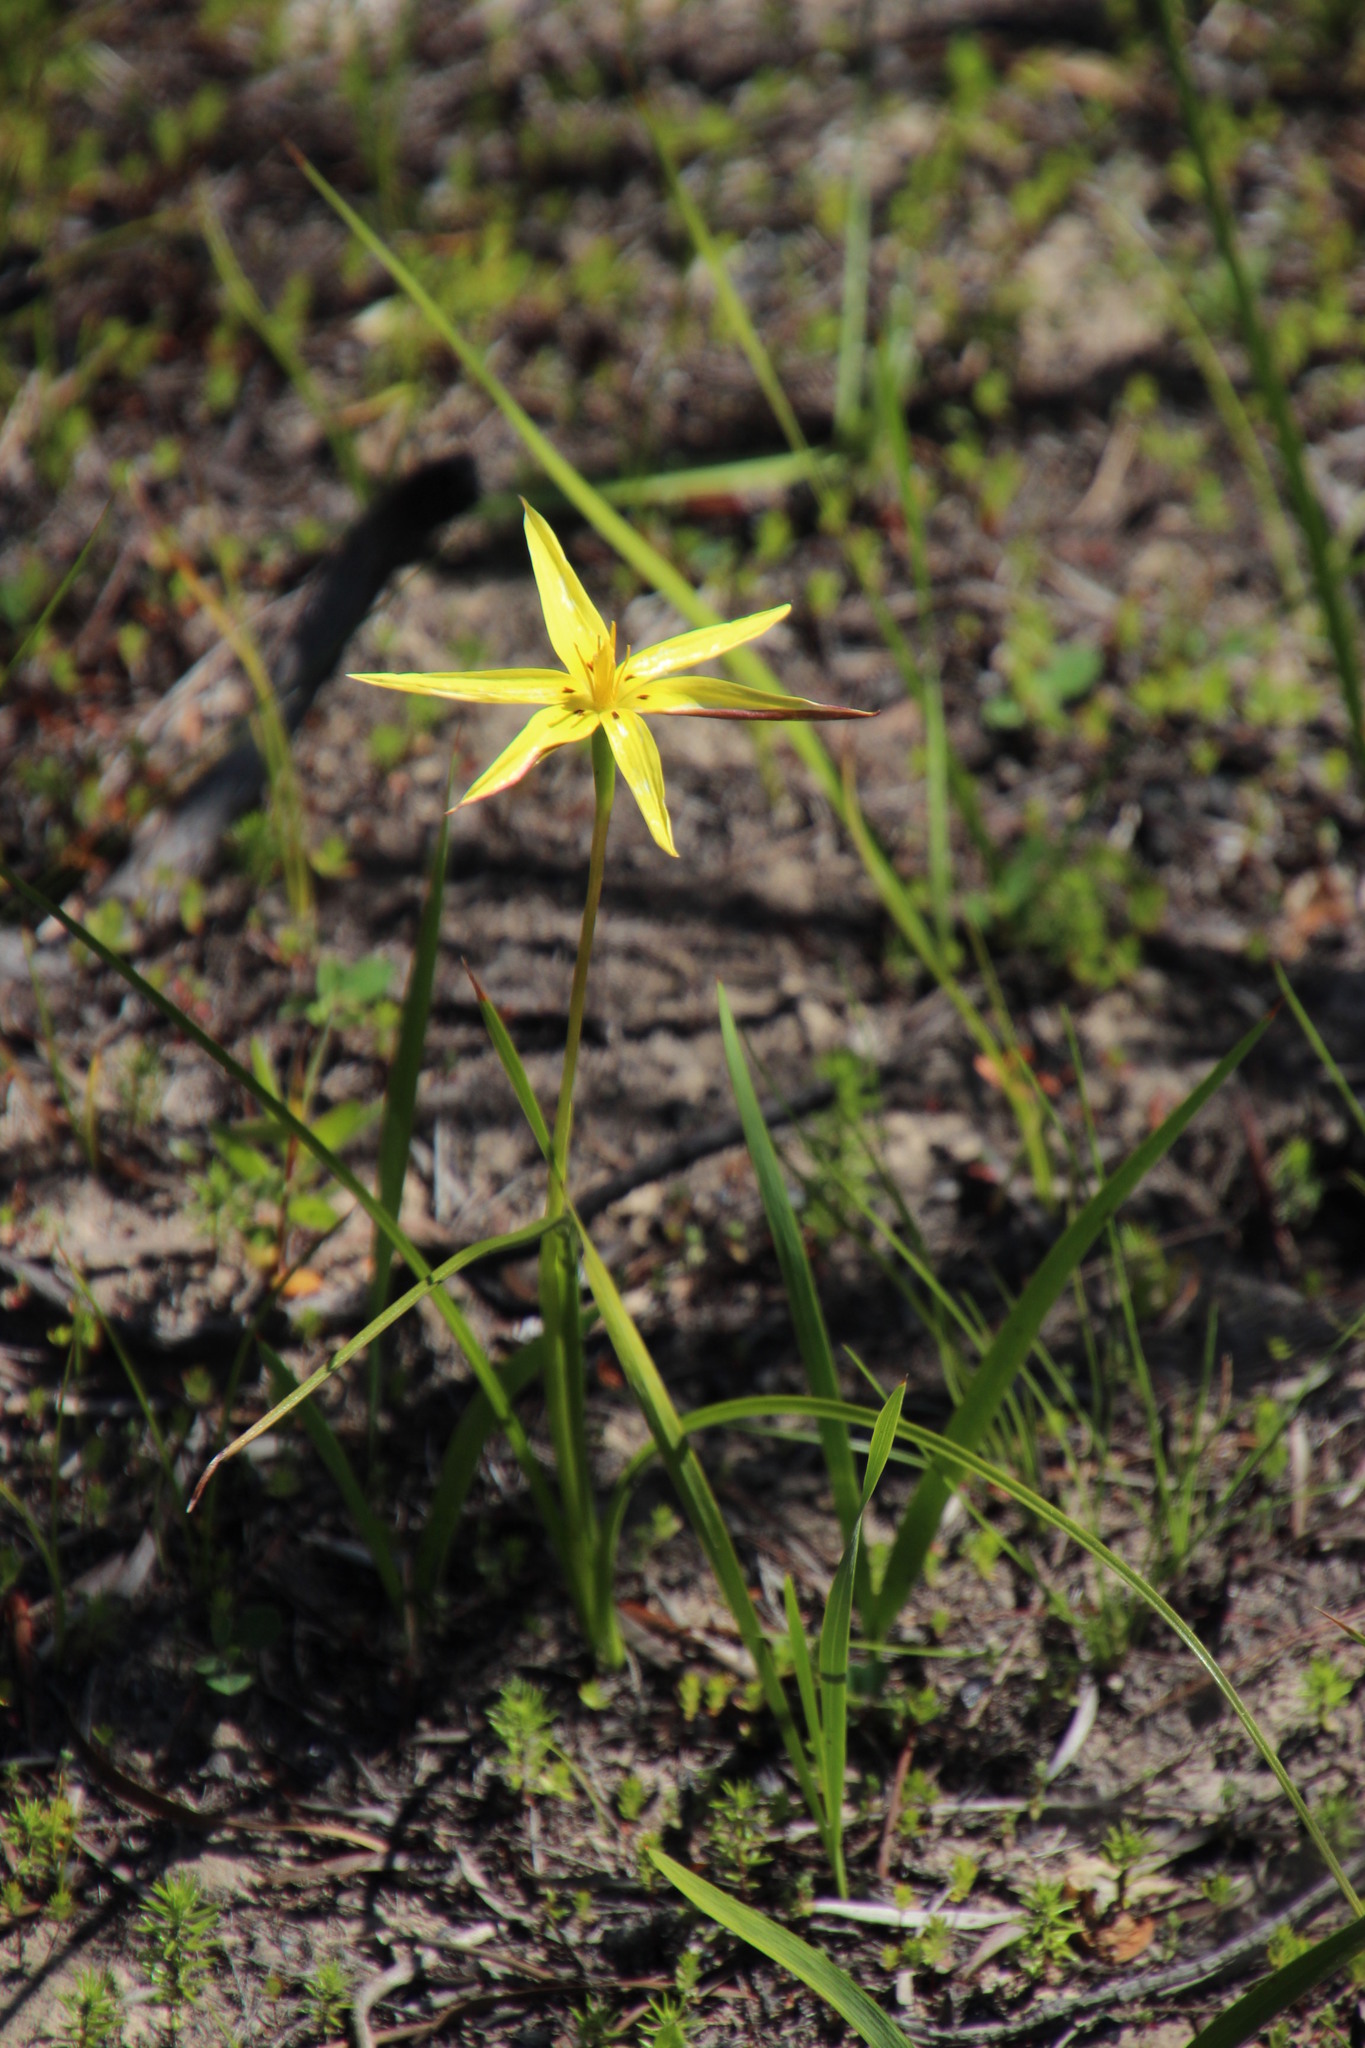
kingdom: Plantae
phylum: Tracheophyta
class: Liliopsida
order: Asparagales
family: Hypoxidaceae
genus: Pauridia
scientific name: Pauridia capensis
